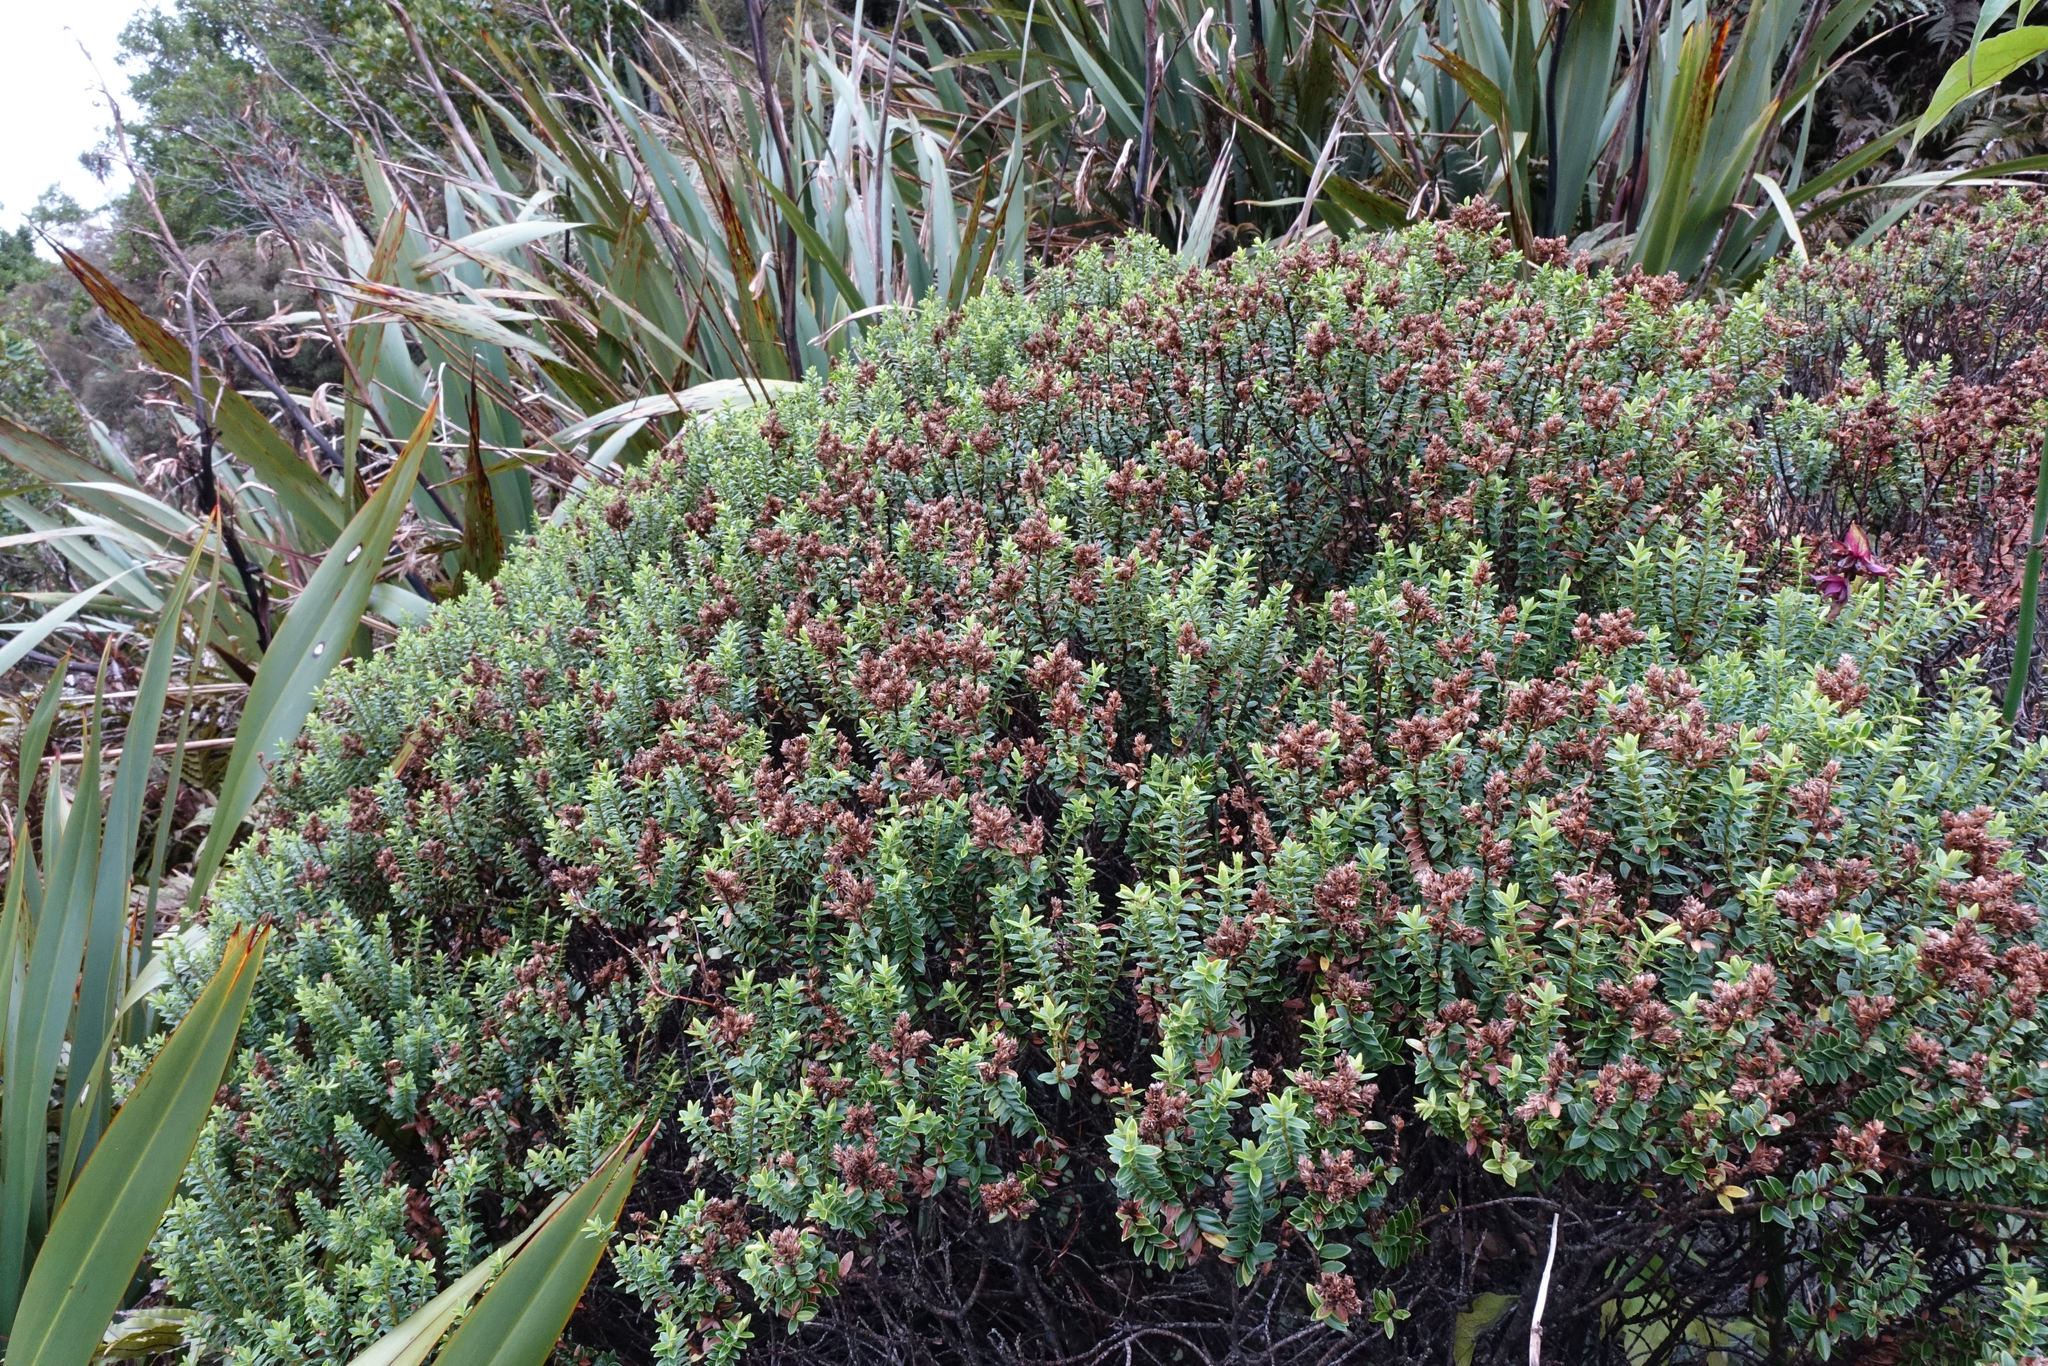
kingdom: Plantae
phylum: Tracheophyta
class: Magnoliopsida
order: Lamiales
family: Plantaginaceae
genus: Veronica
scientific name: Veronica odora
